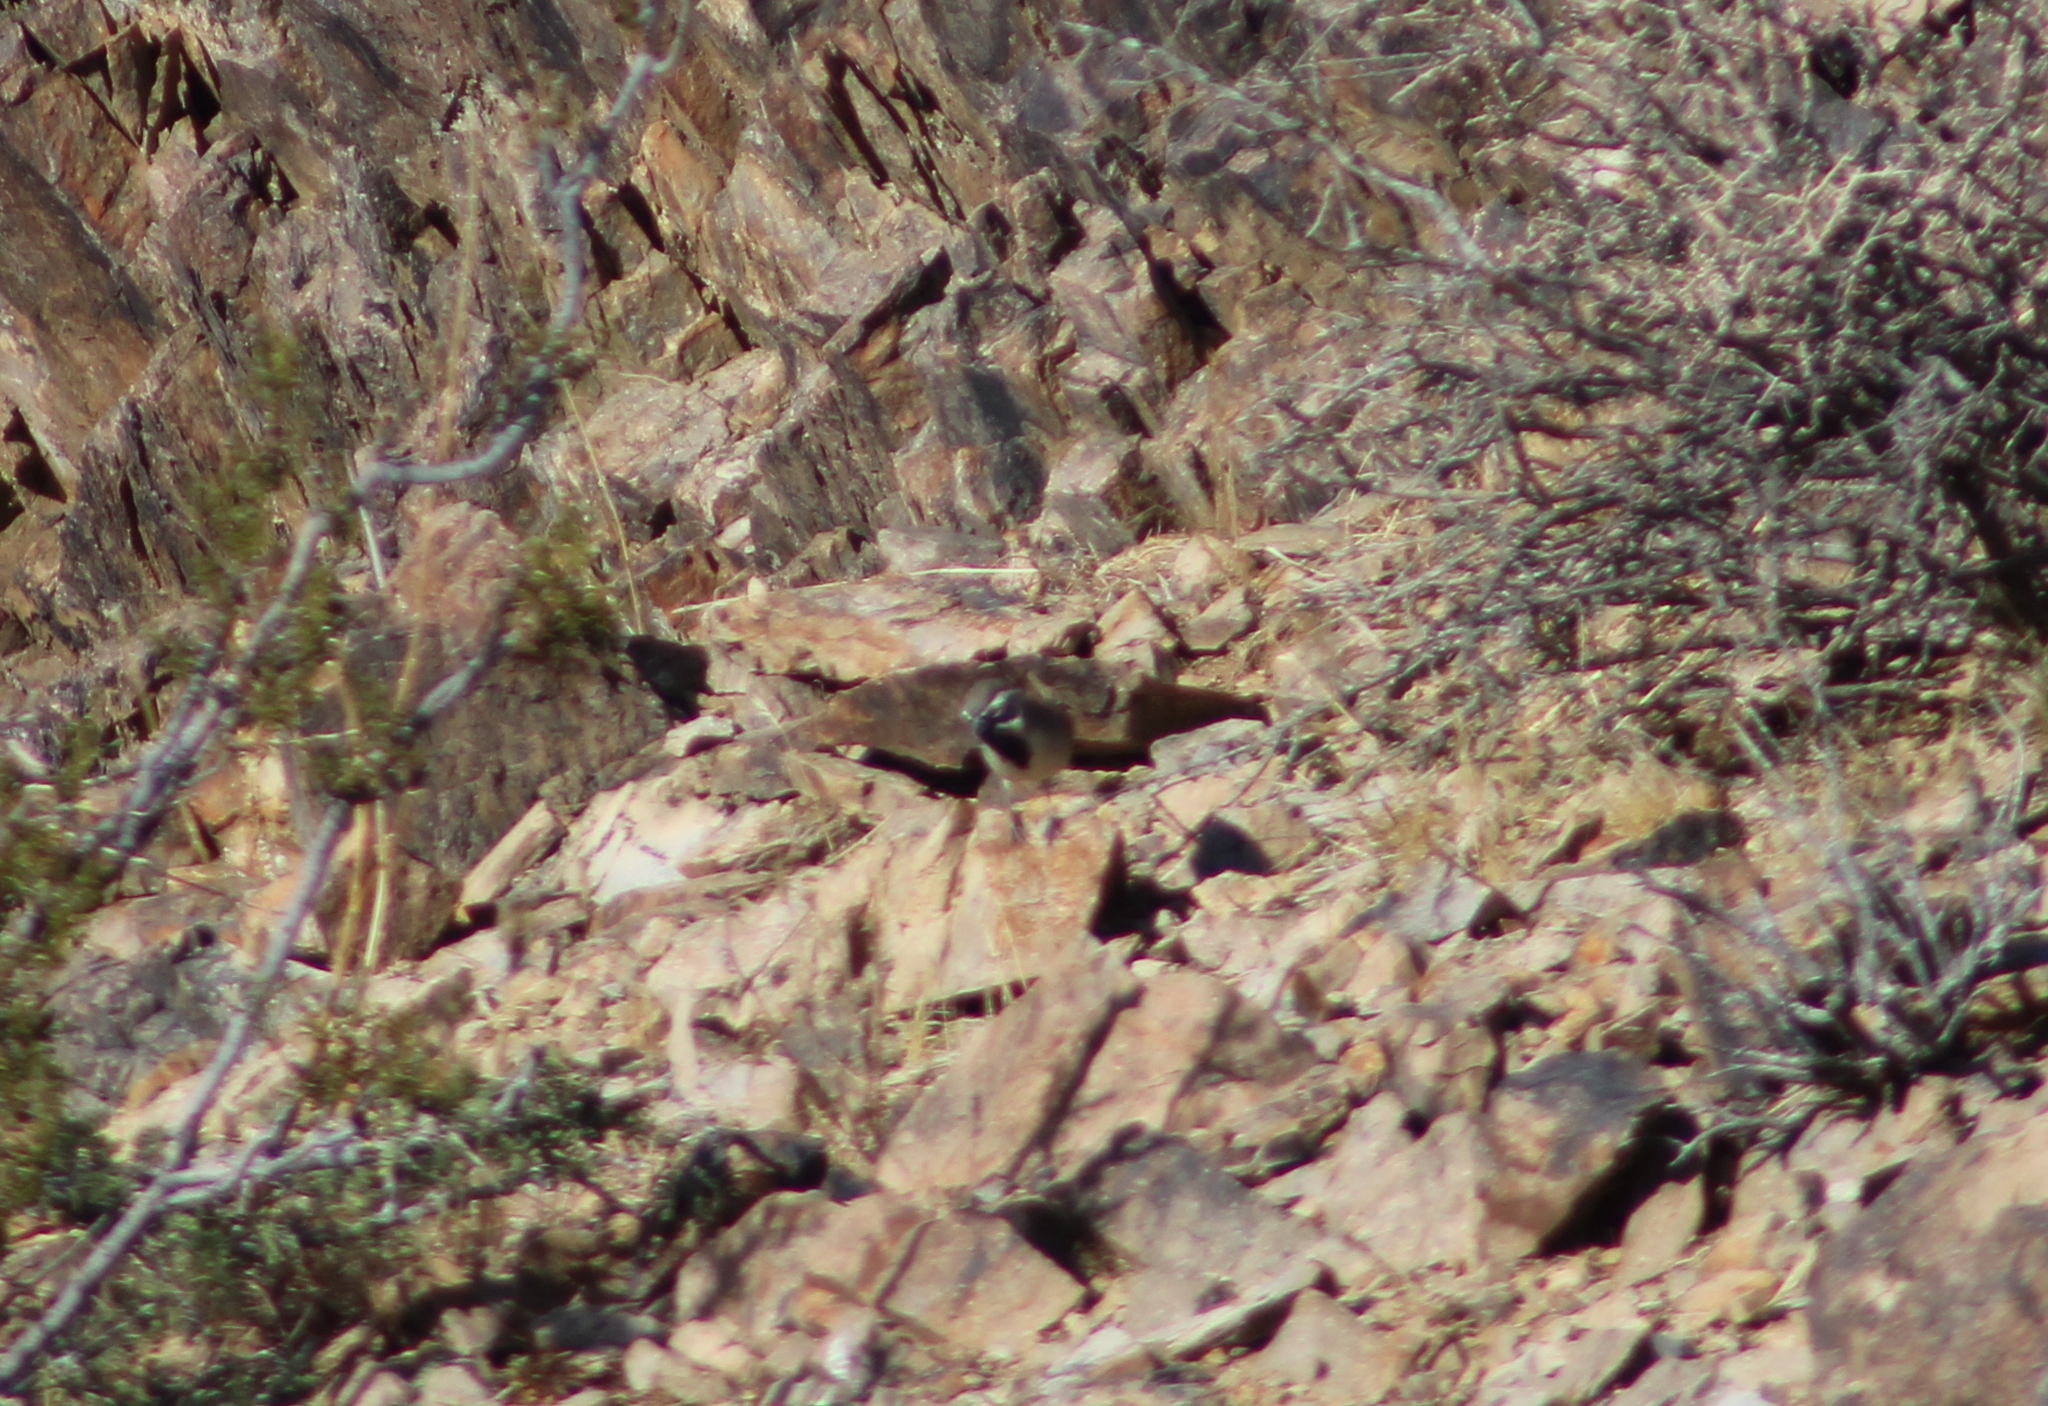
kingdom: Animalia
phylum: Chordata
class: Aves
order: Passeriformes
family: Passerellidae
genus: Amphispiza
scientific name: Amphispiza bilineata
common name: Black-throated sparrow
